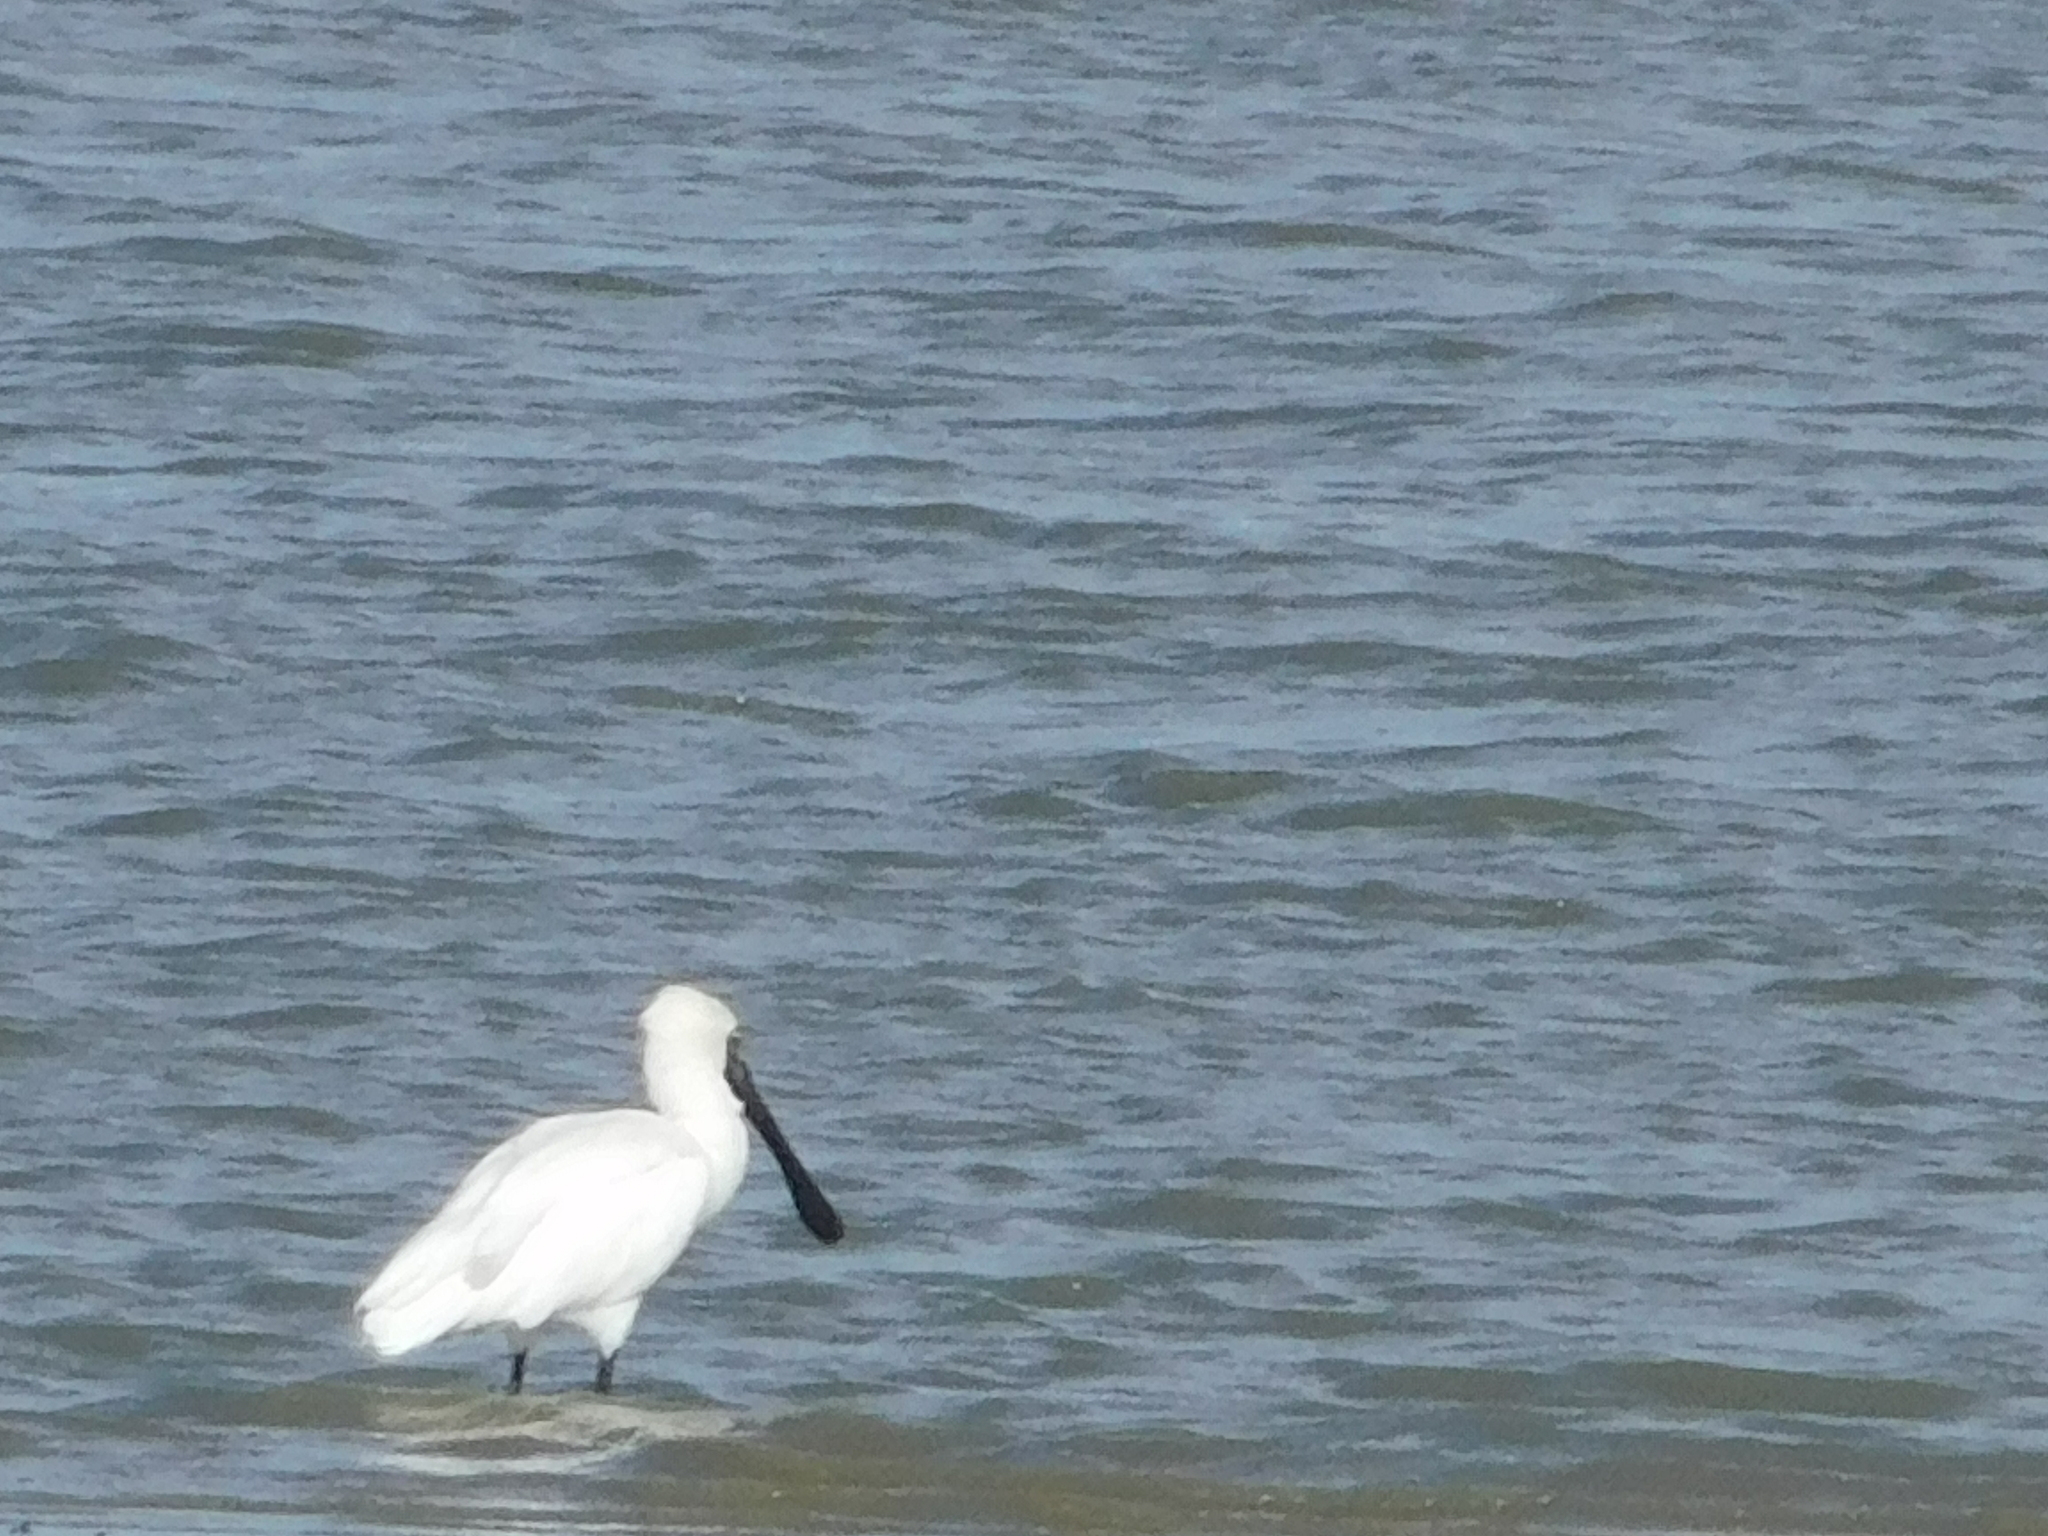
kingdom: Animalia
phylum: Chordata
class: Aves
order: Pelecaniformes
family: Threskiornithidae
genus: Platalea
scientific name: Platalea regia
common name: Royal spoonbill
